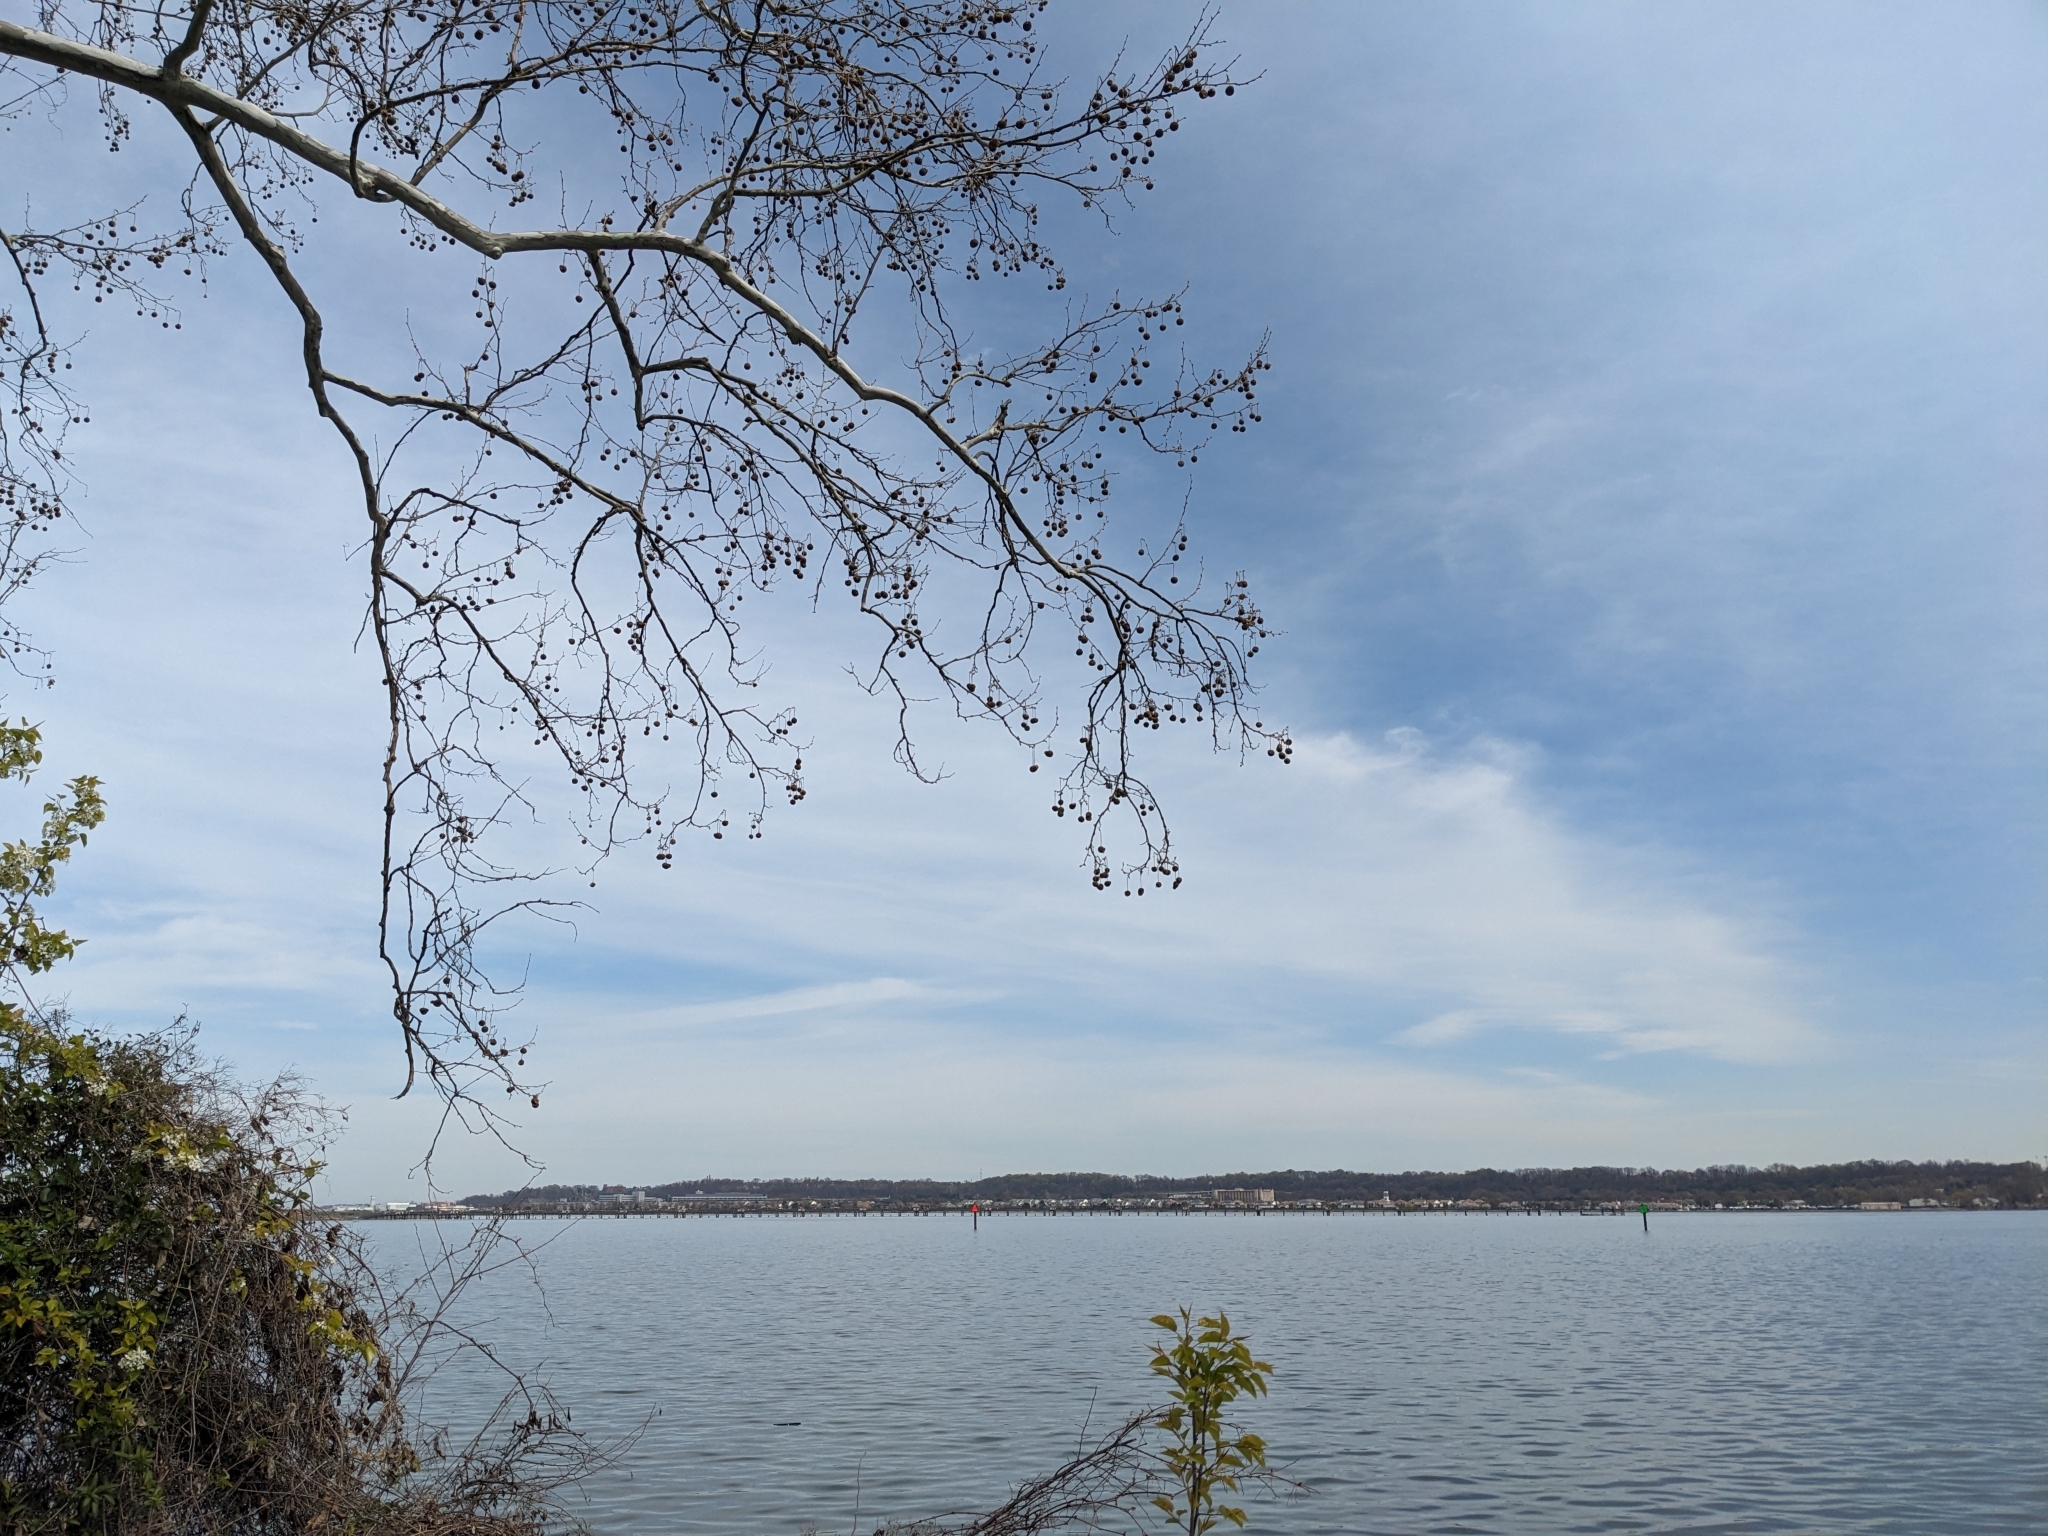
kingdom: Plantae
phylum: Tracheophyta
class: Magnoliopsida
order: Proteales
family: Platanaceae
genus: Platanus
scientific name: Platanus occidentalis
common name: American sycamore
